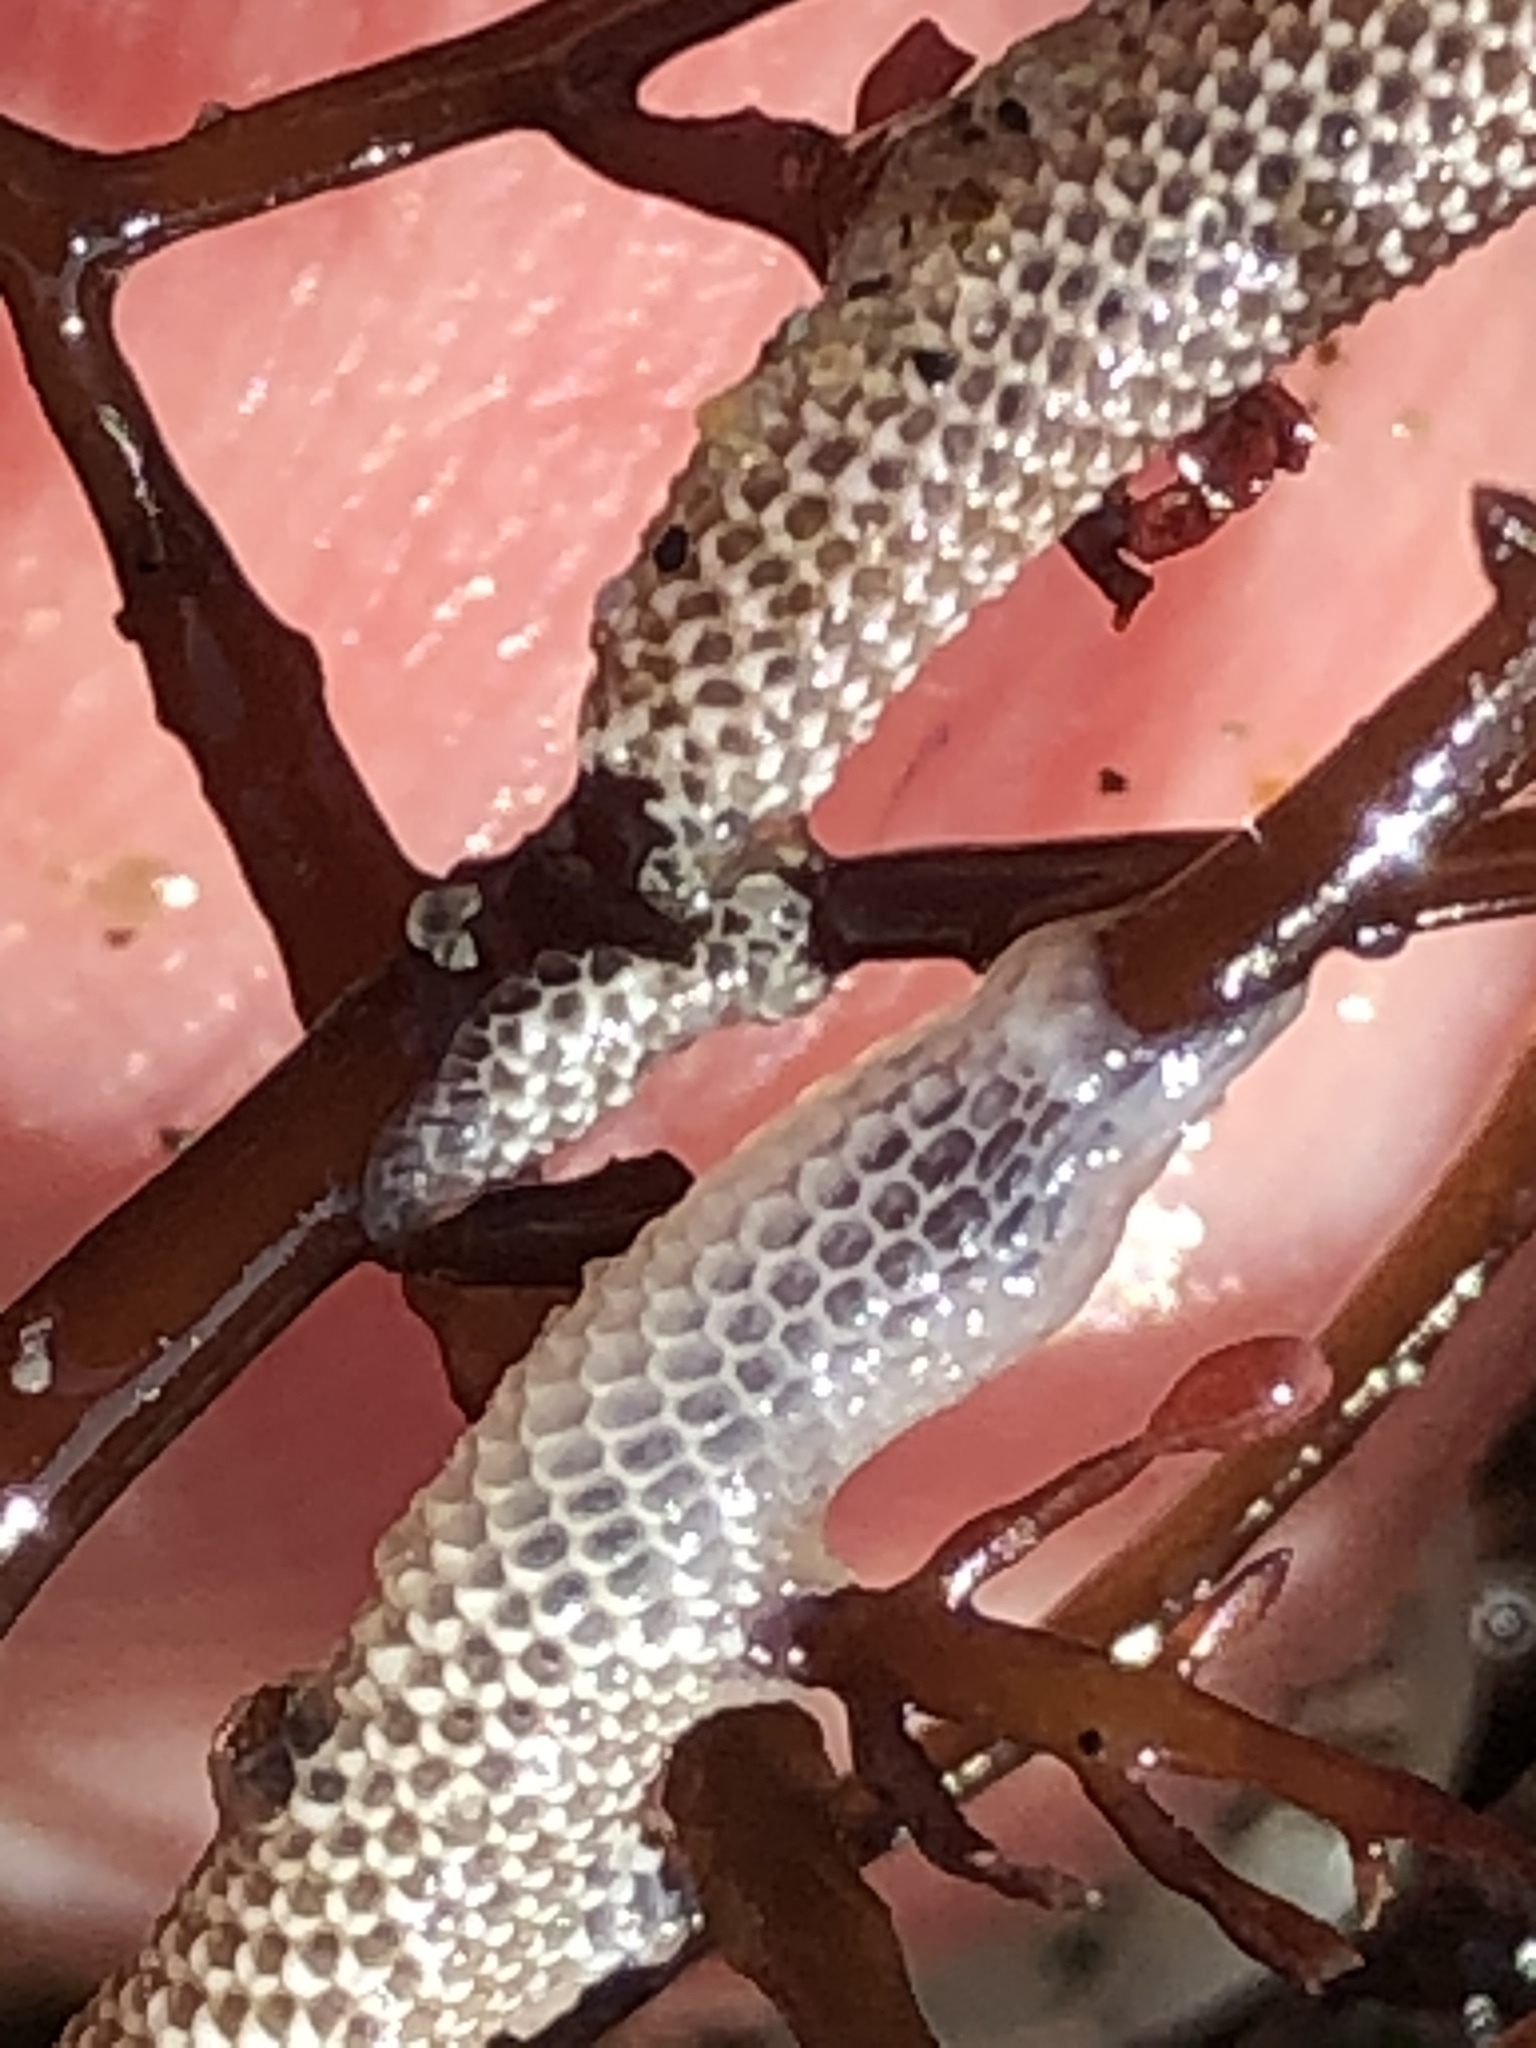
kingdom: Animalia
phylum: Bryozoa
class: Gymnolaemata
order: Cheilostomatida
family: Membraniporidae
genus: Jellyella
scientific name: Jellyella tuberculata
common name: Sargassum bryozoan
